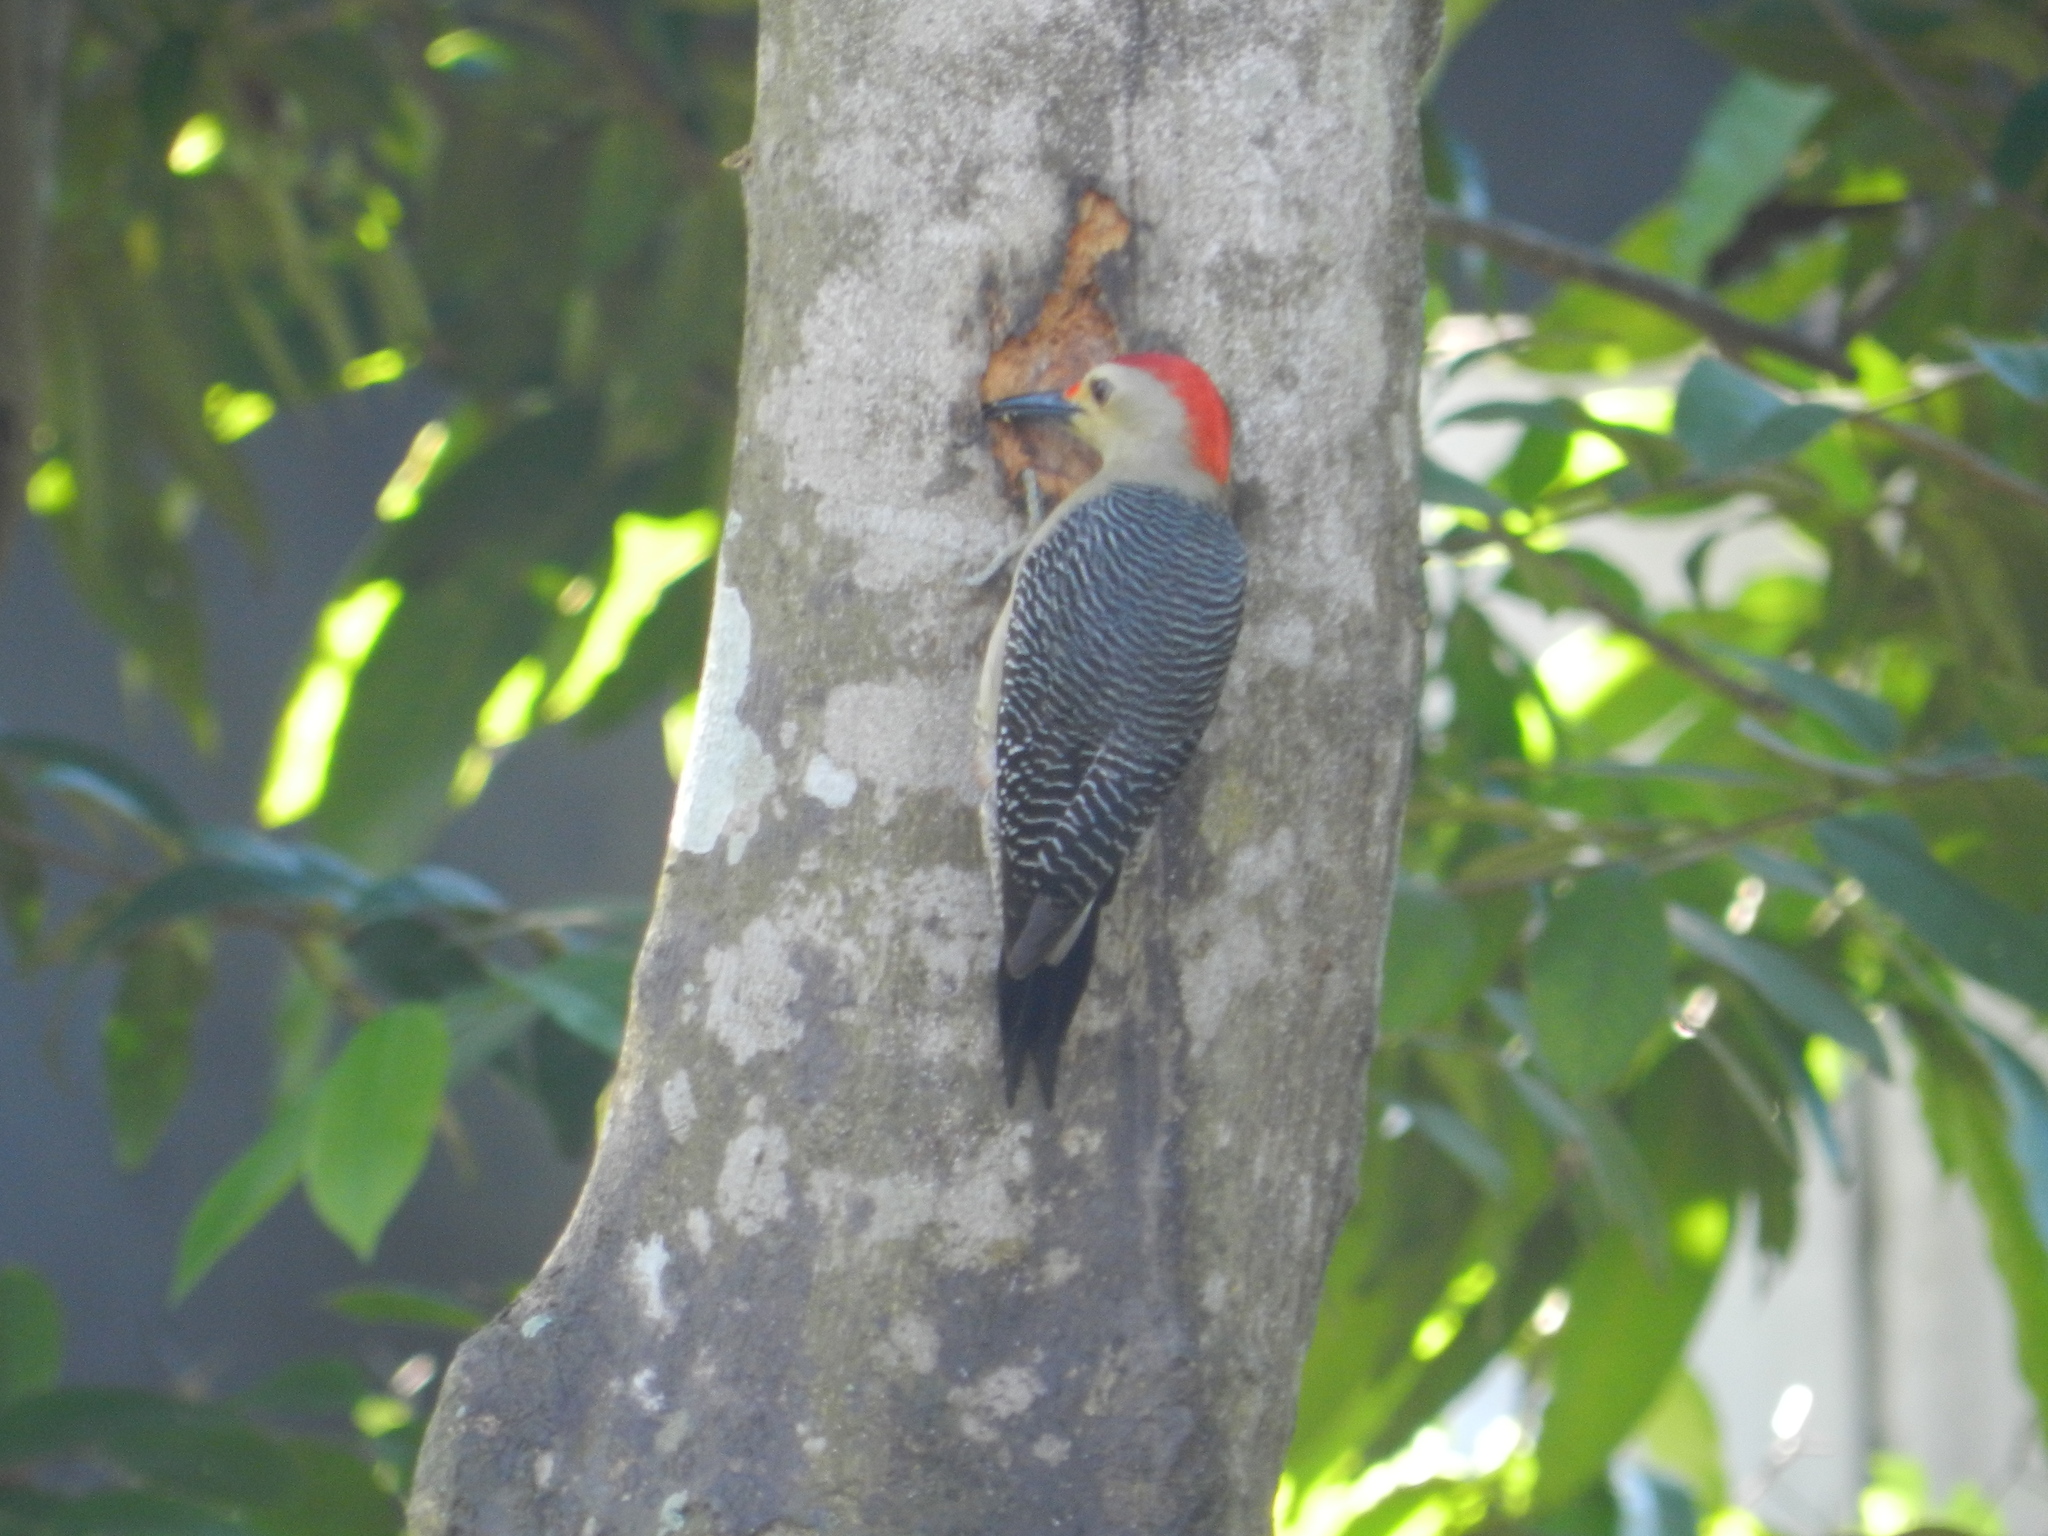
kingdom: Animalia
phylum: Chordata
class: Aves
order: Piciformes
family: Picidae
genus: Melanerpes
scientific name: Melanerpes aurifrons
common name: Golden-fronted woodpecker
